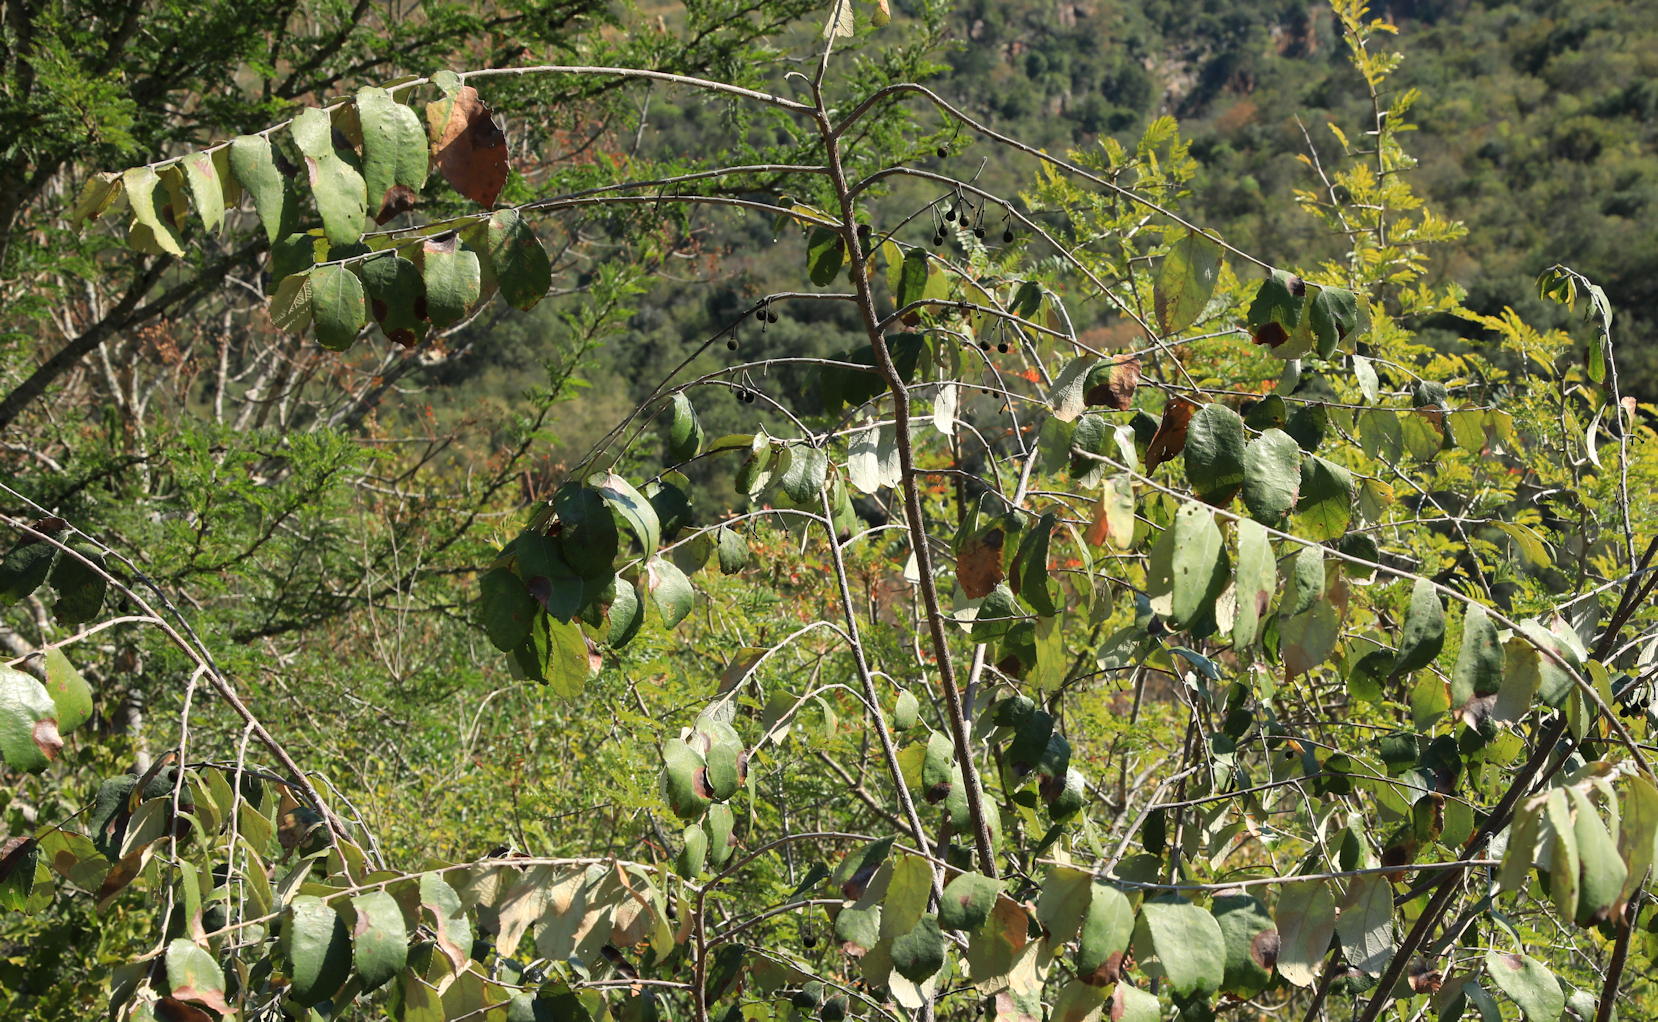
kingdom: Plantae
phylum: Tracheophyta
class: Magnoliopsida
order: Malvales
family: Malvaceae
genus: Grewia
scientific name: Grewia monticola
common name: Grey raisin
